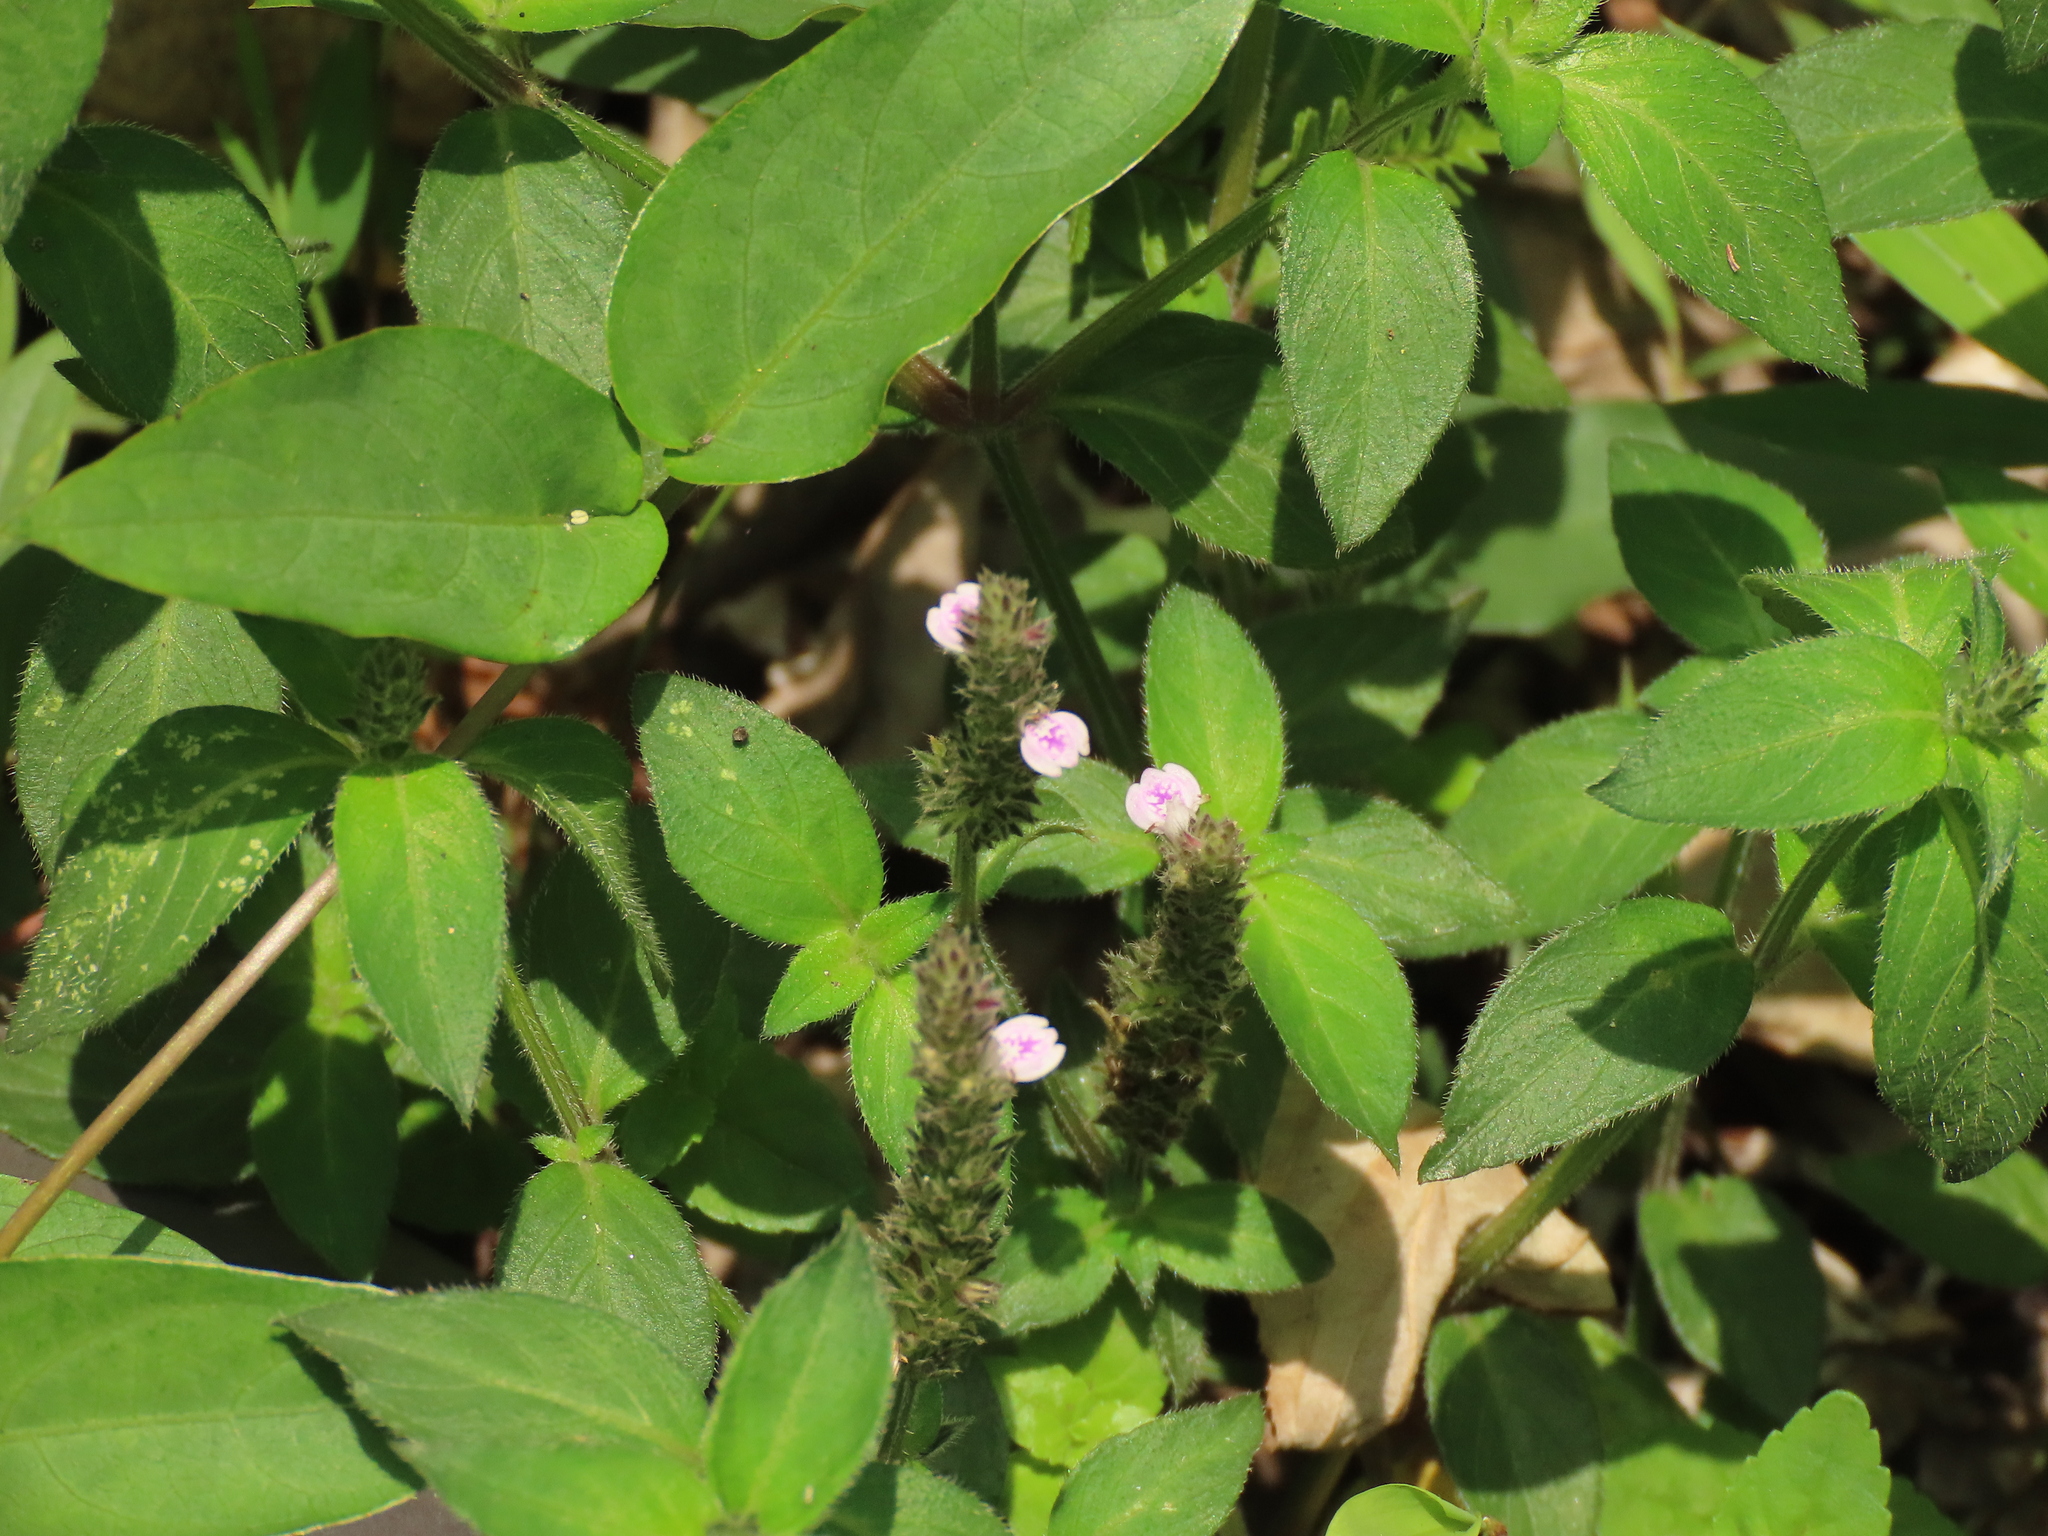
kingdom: Plantae
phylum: Tracheophyta
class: Magnoliopsida
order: Lamiales
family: Acanthaceae
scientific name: Acanthaceae
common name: Acanthaceae
